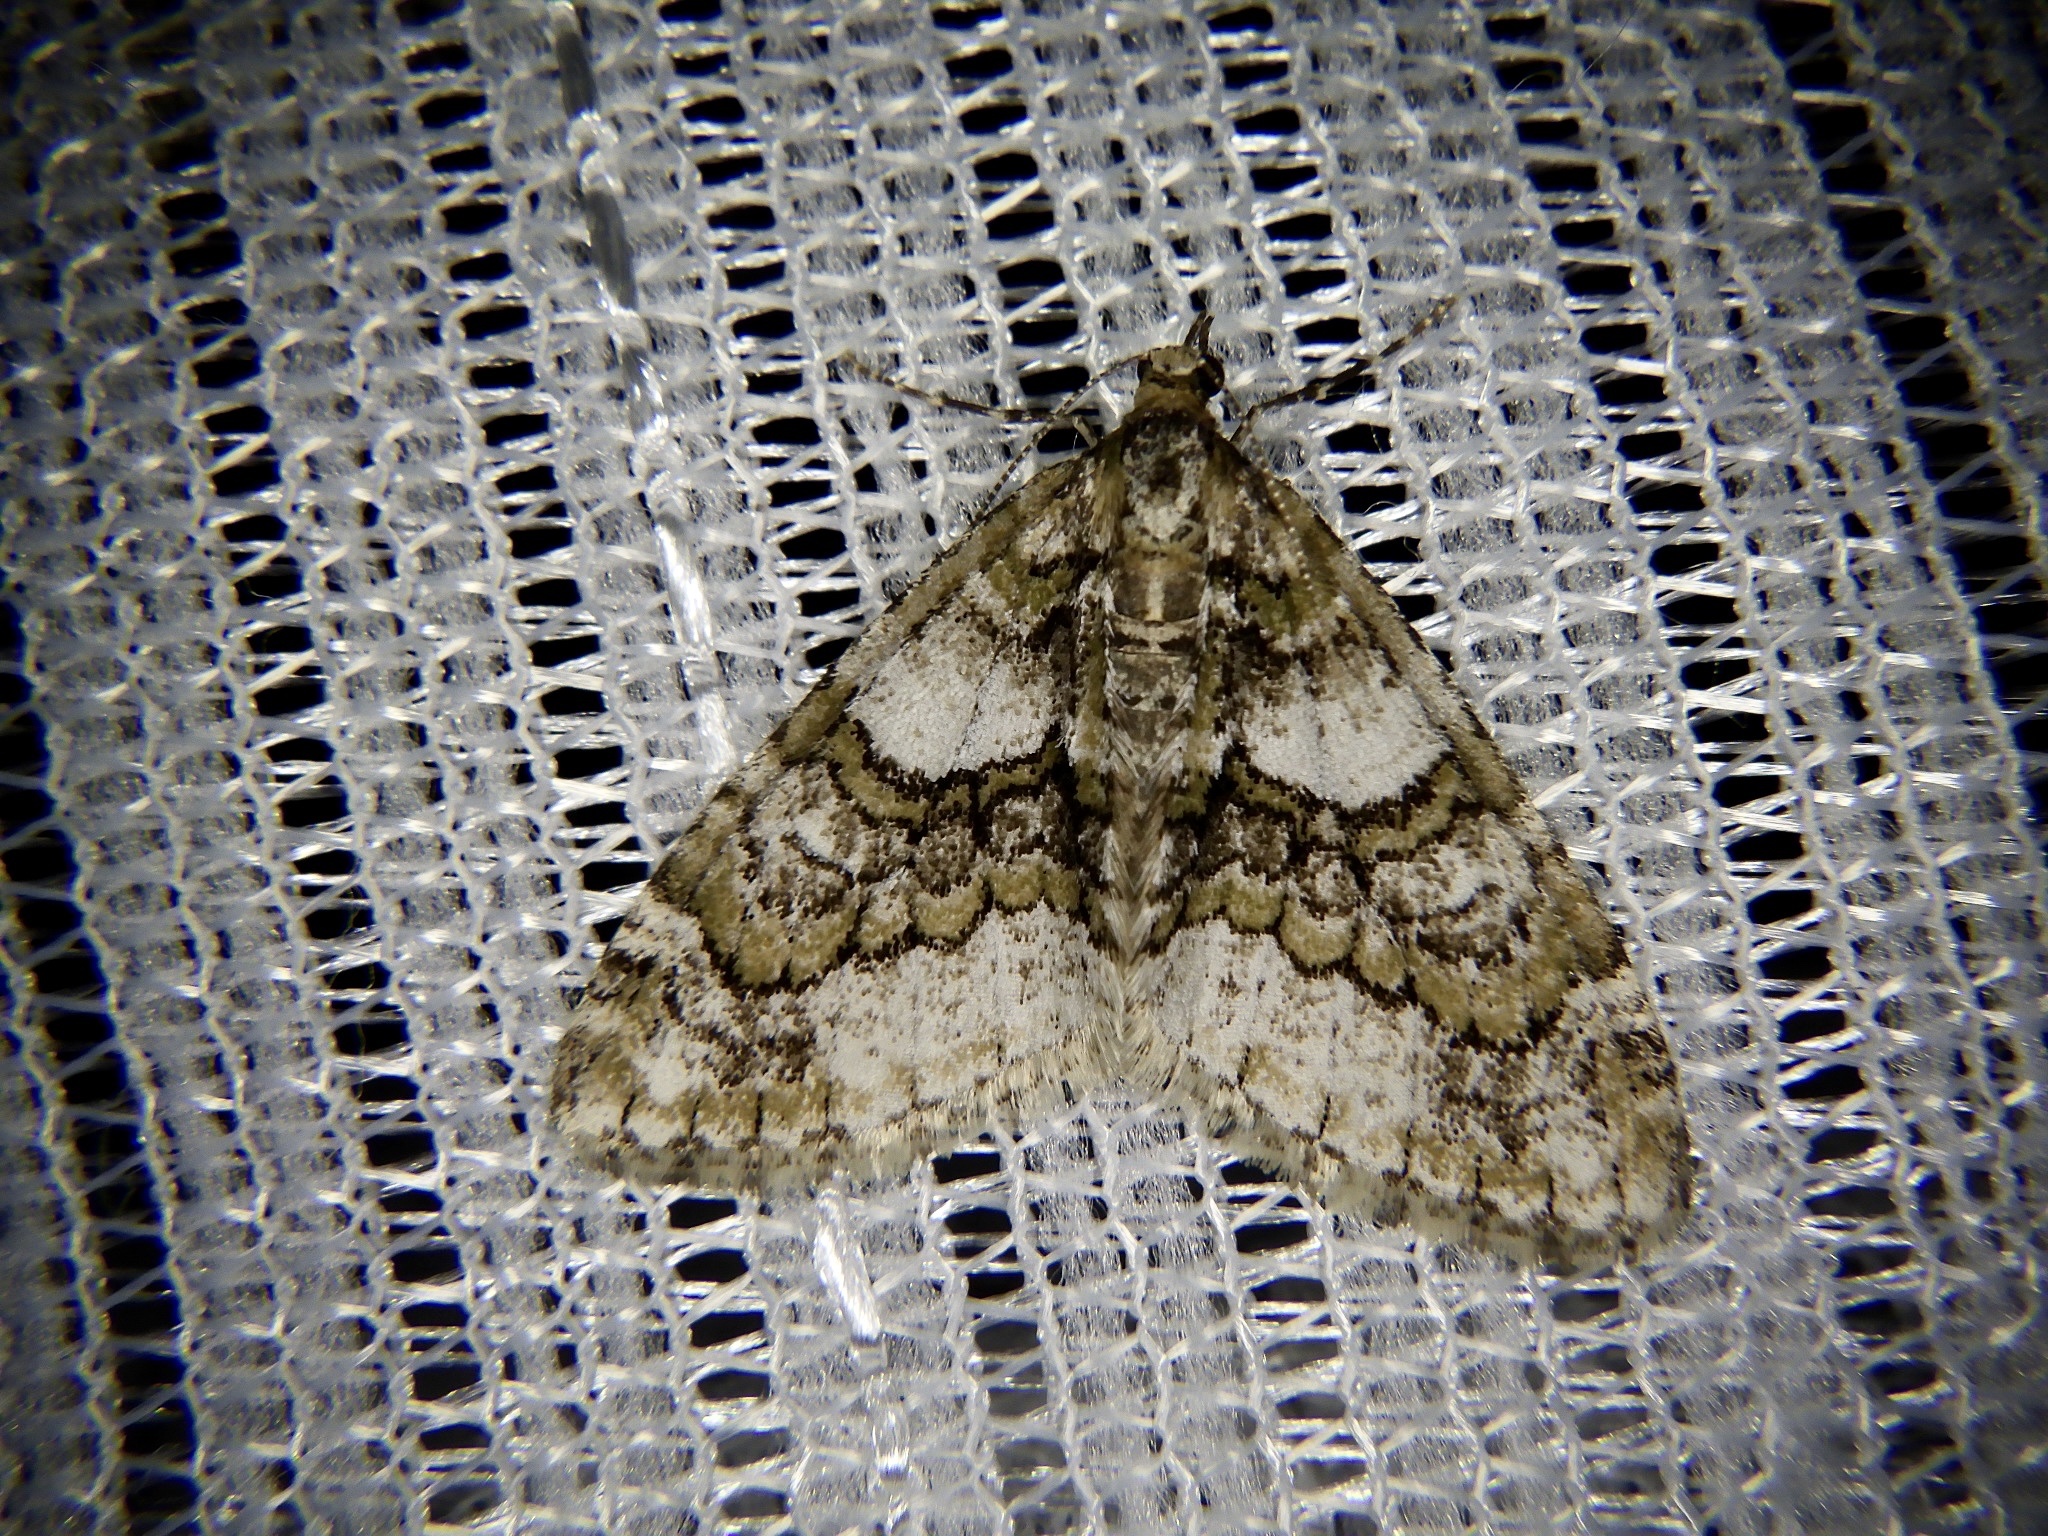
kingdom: Animalia
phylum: Arthropoda
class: Insecta
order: Lepidoptera
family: Geometridae
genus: Esakiopteryx
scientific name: Esakiopteryx volitans
